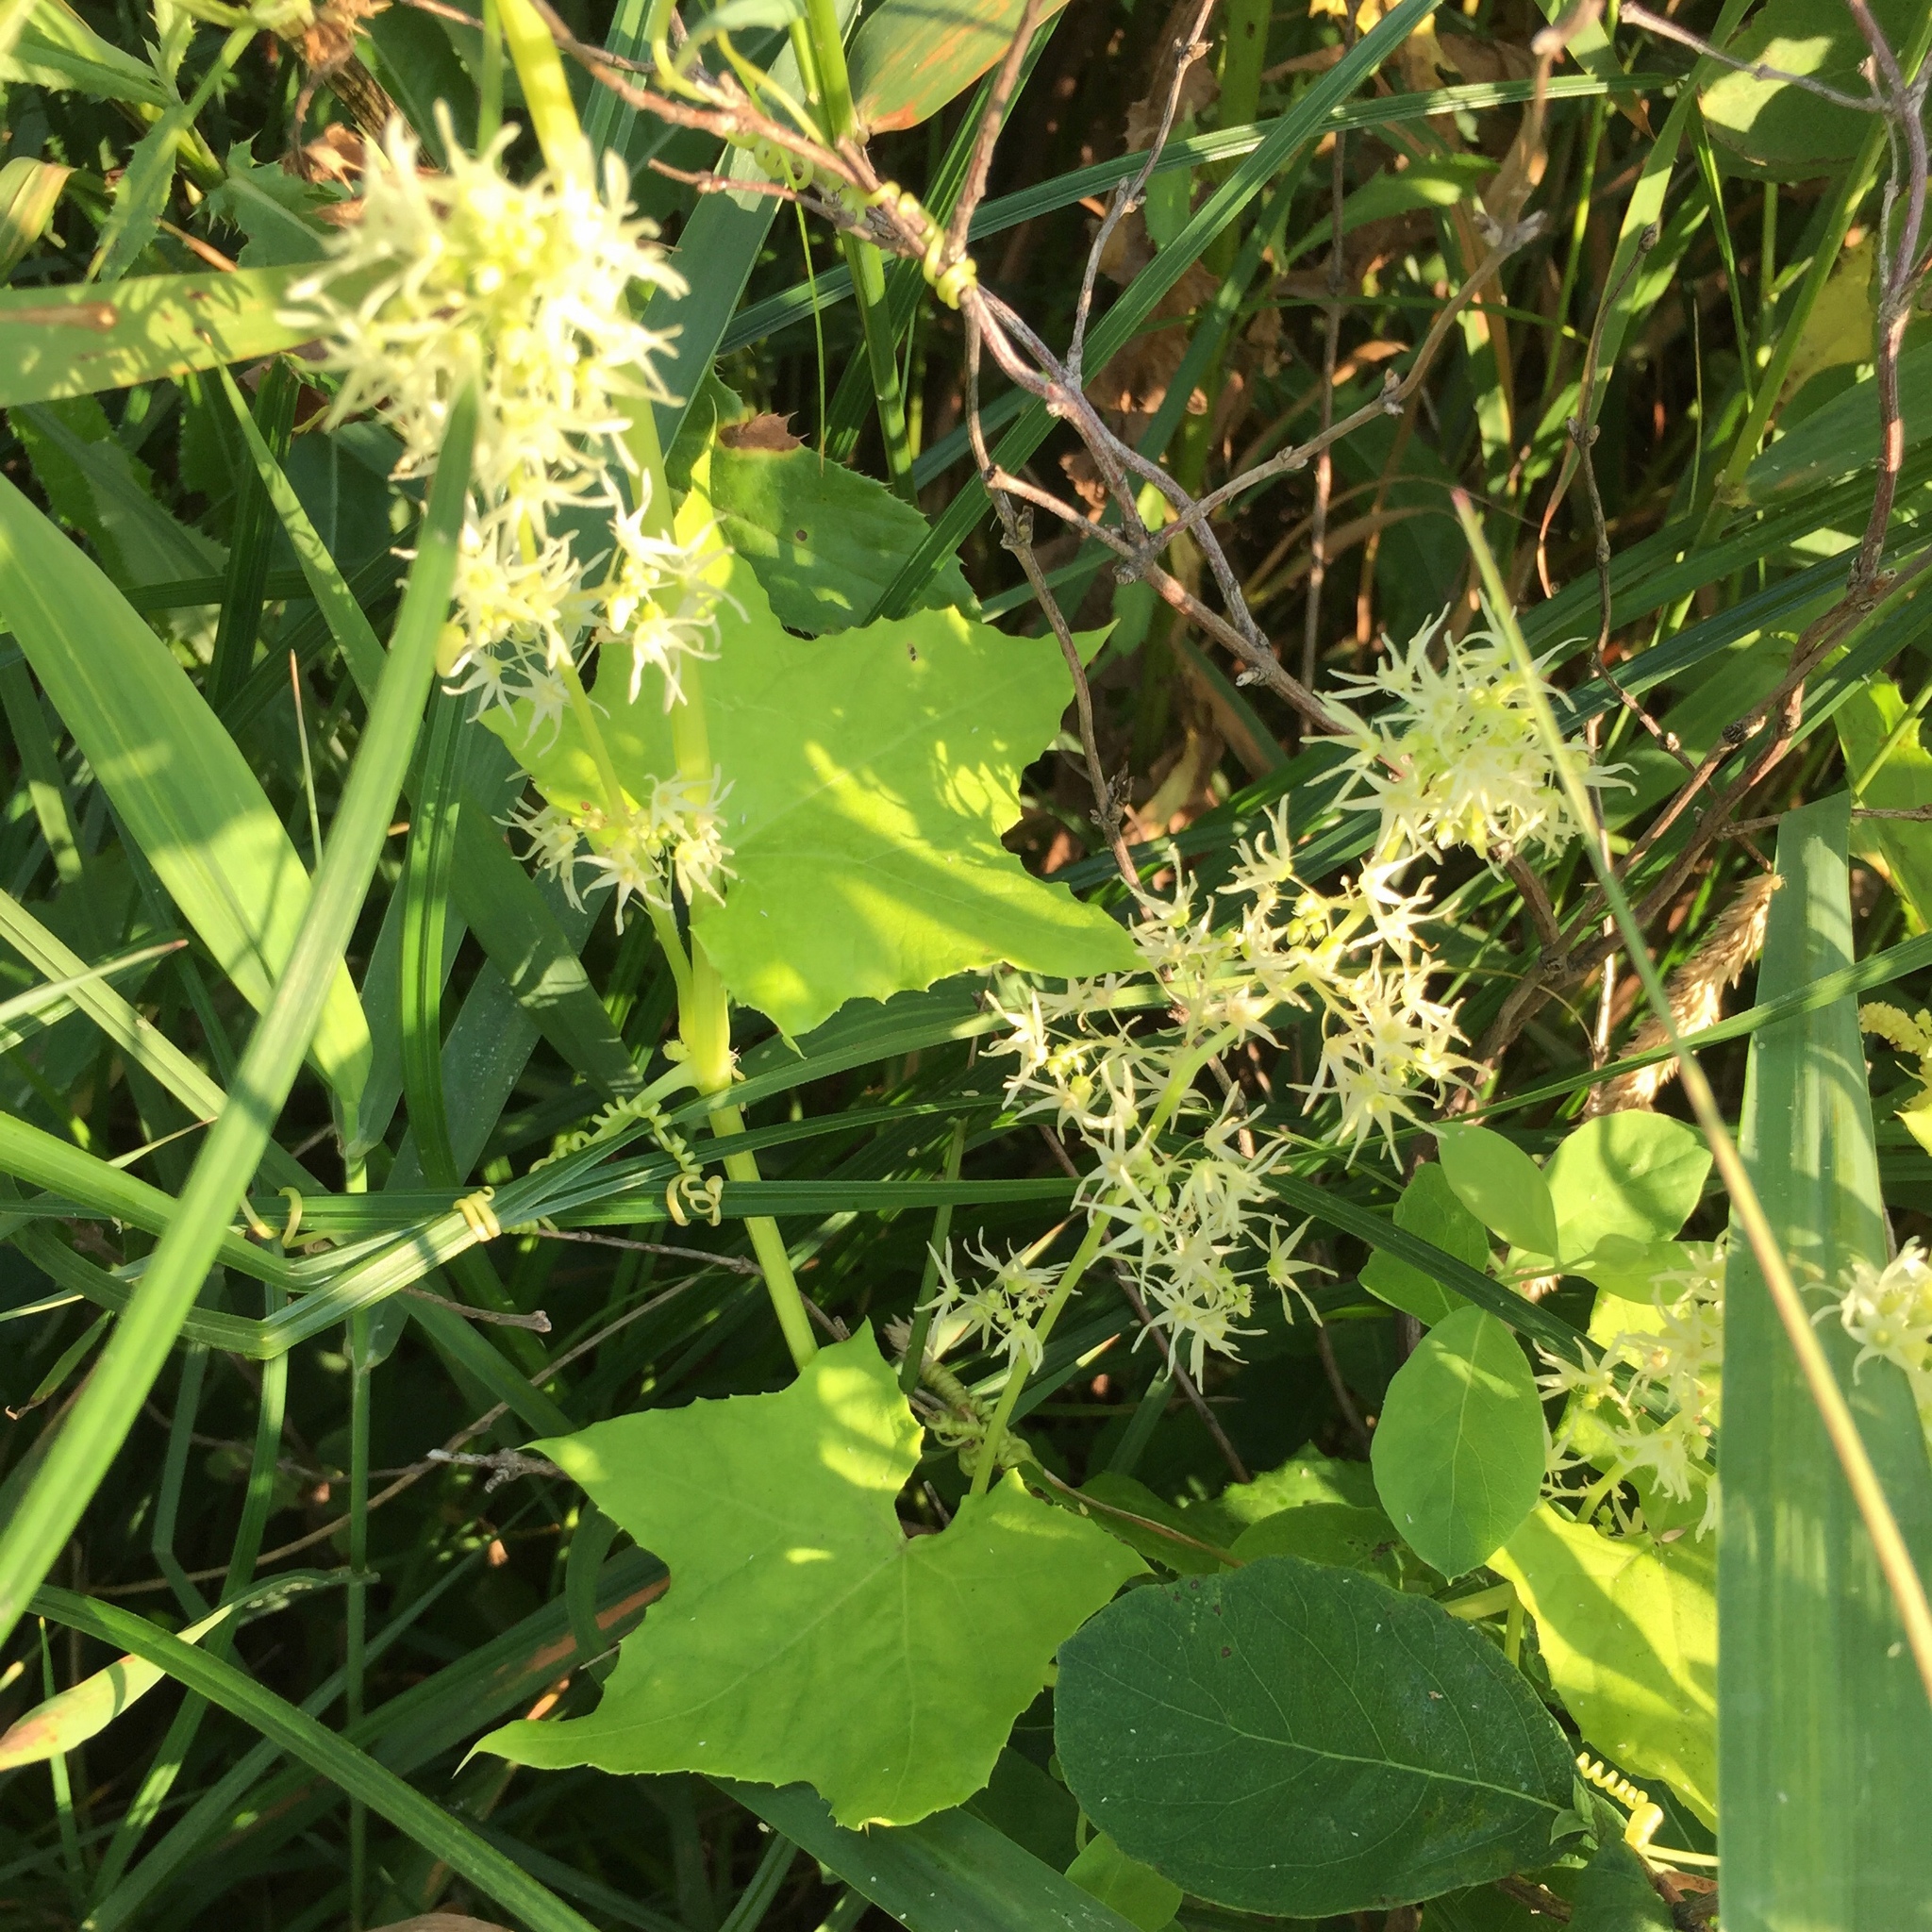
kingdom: Plantae
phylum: Tracheophyta
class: Magnoliopsida
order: Cucurbitales
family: Cucurbitaceae
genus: Echinocystis
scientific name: Echinocystis lobata
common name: Wild cucumber
